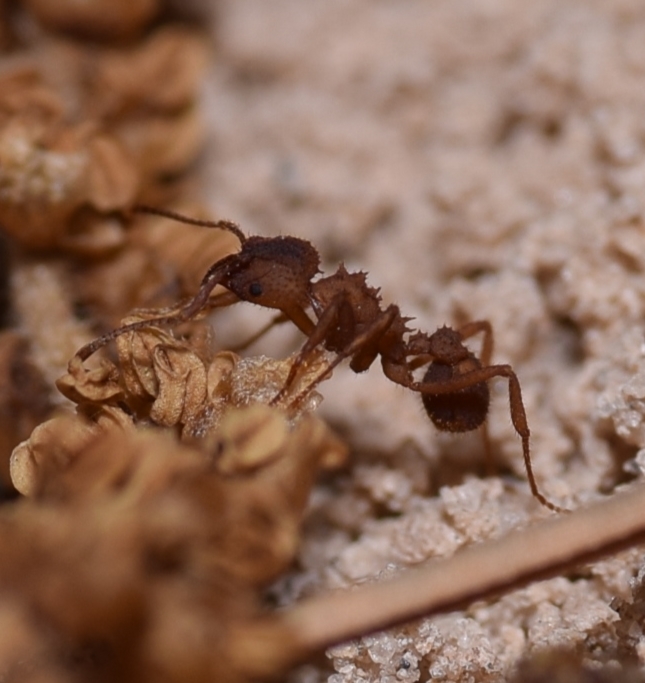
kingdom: Animalia
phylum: Arthropoda
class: Insecta
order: Hymenoptera
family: Formicidae
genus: Trachymyrmex
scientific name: Trachymyrmex septentrionalis
